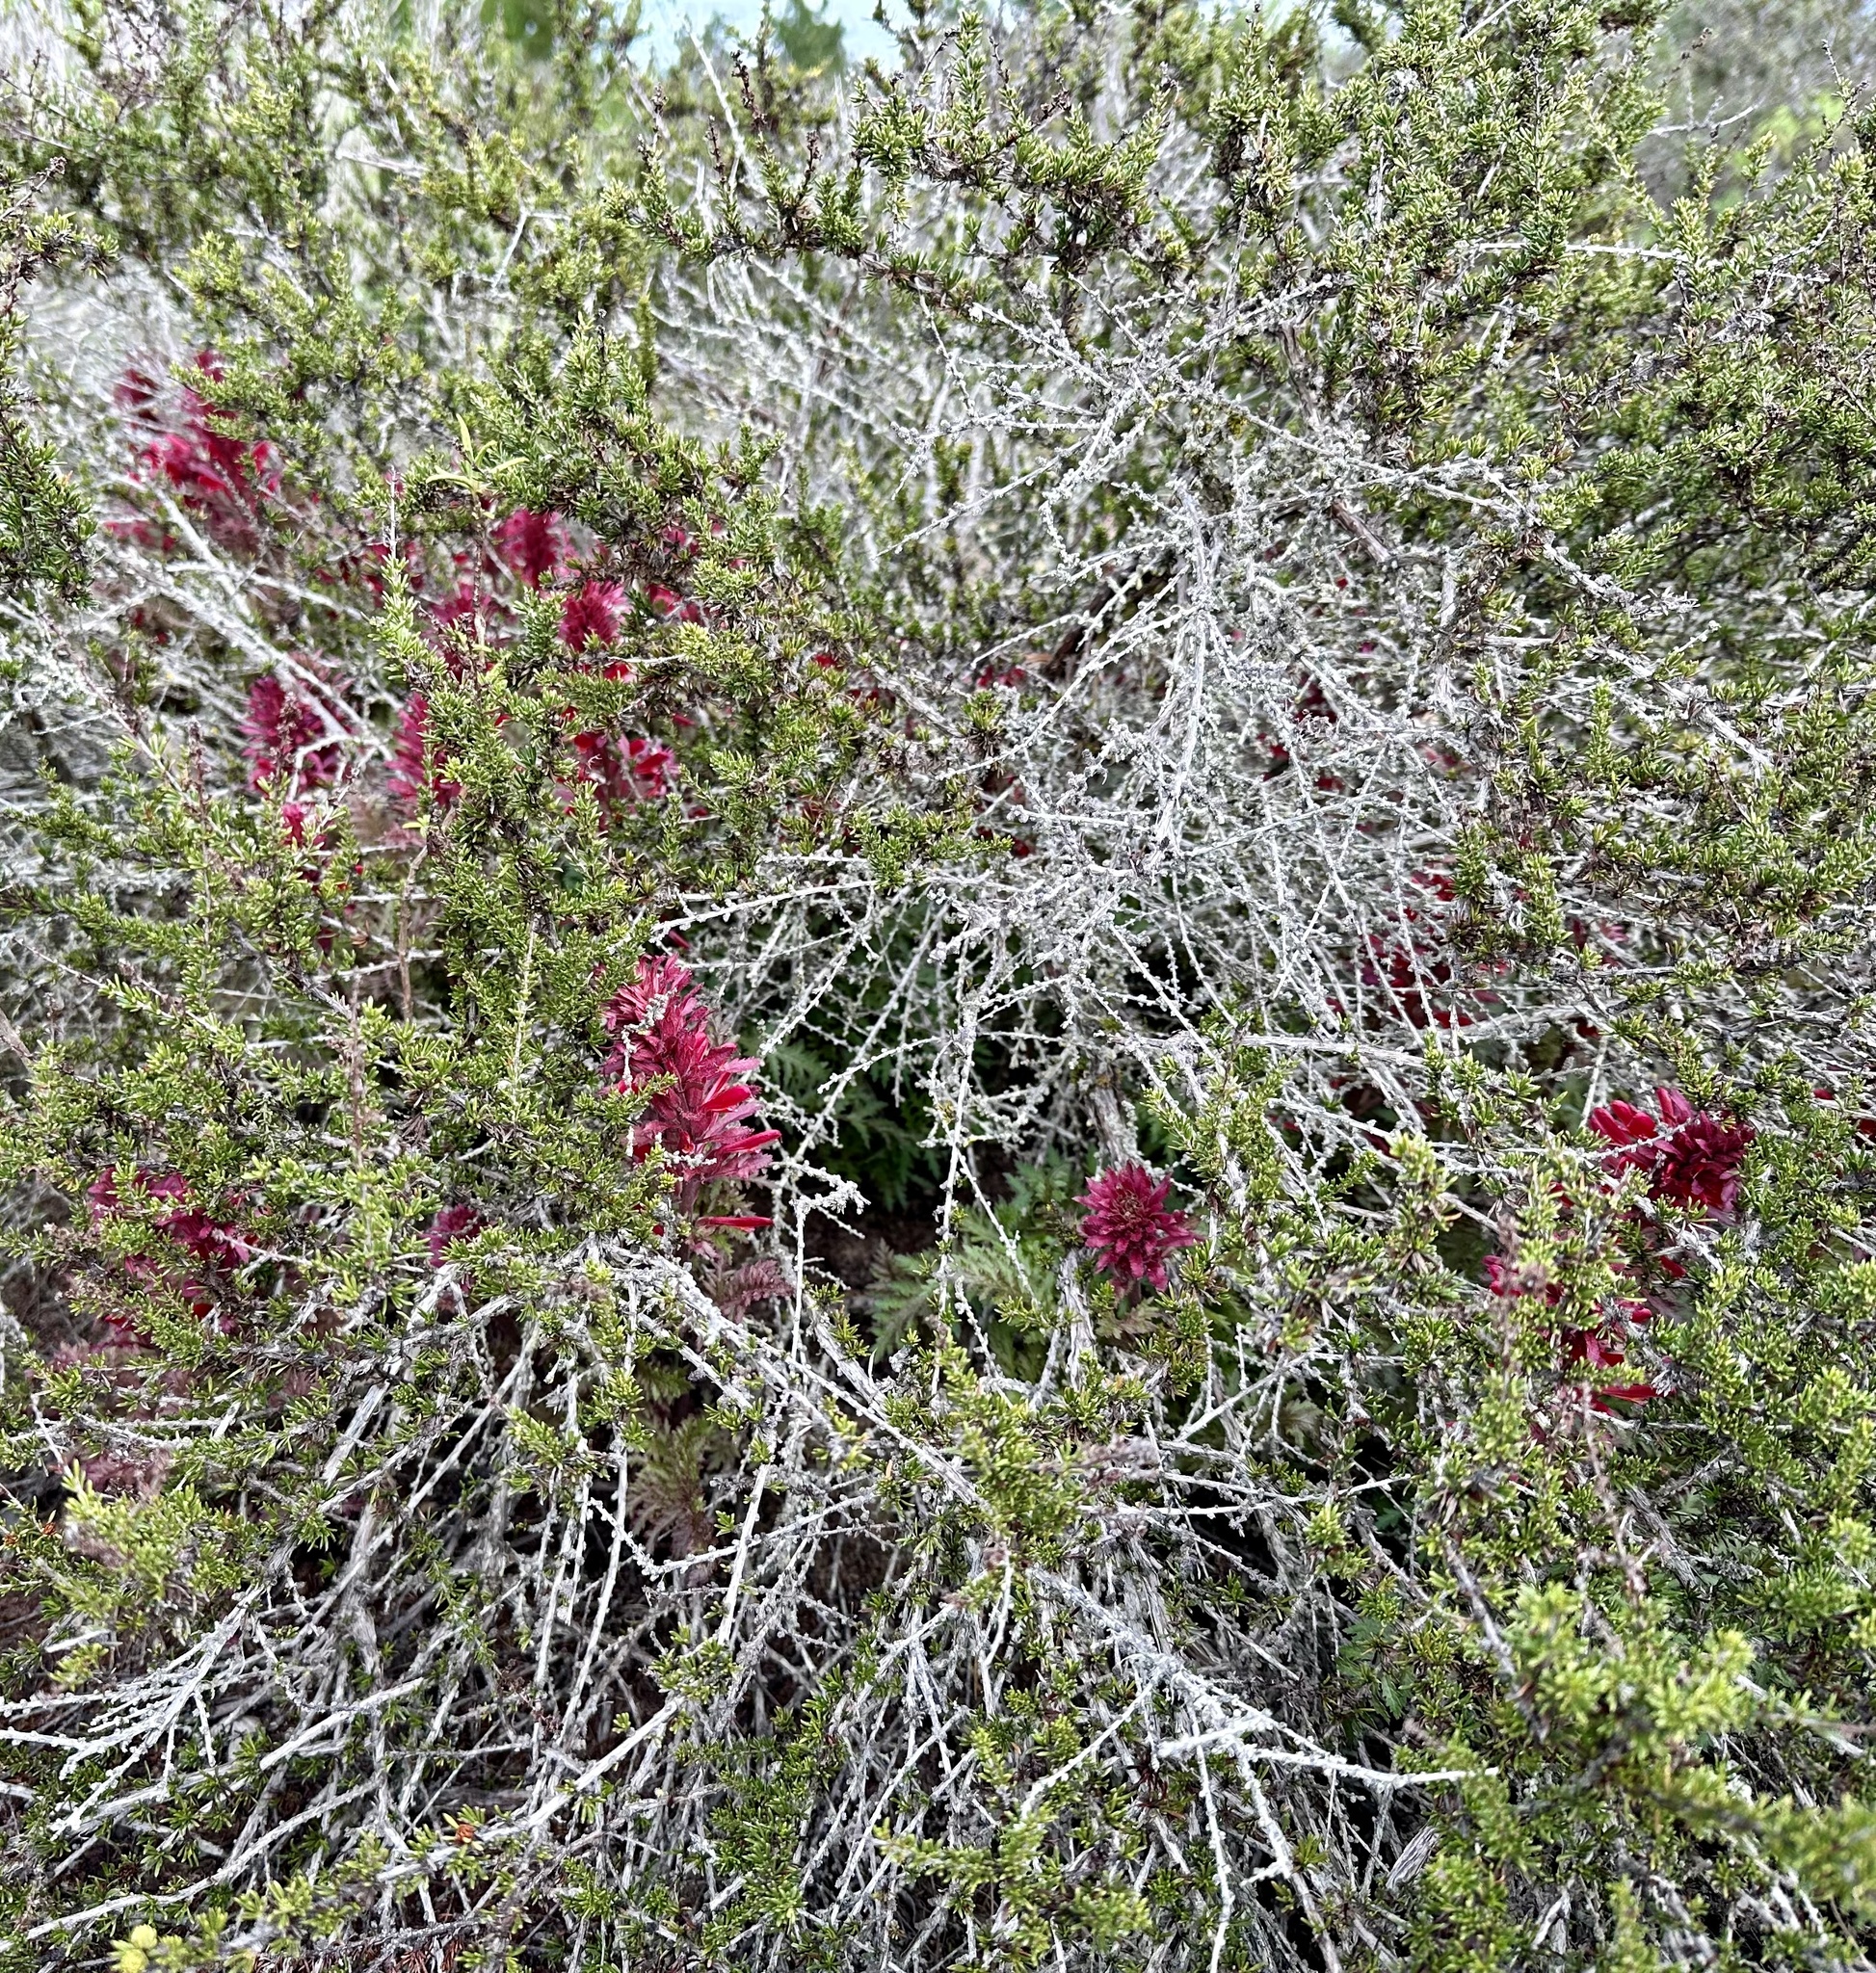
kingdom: Plantae
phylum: Tracheophyta
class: Magnoliopsida
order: Lamiales
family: Orobanchaceae
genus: Pedicularis
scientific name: Pedicularis densiflora
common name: Indian warrior
